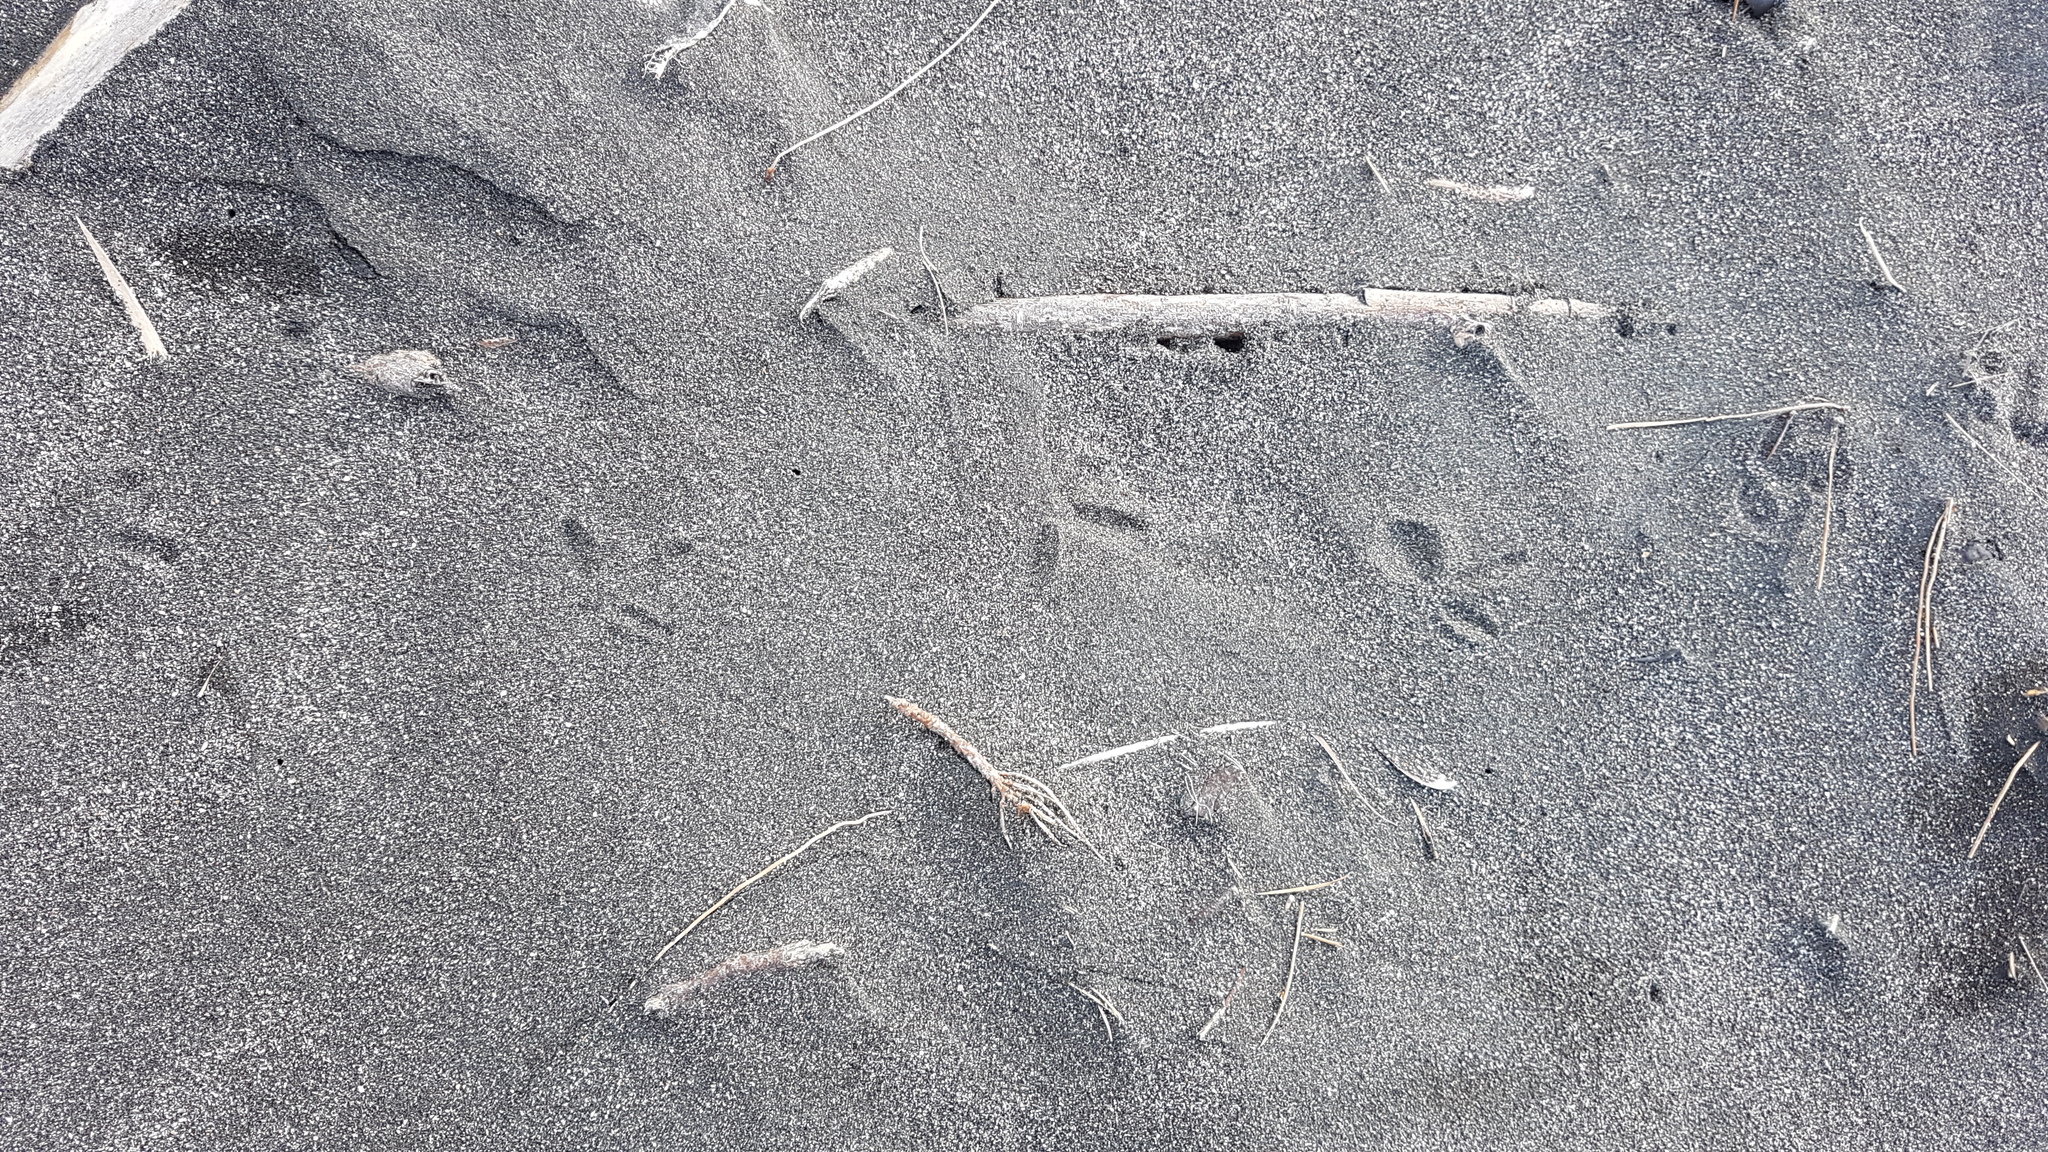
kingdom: Animalia
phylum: Chordata
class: Aves
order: Charadriiformes
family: Charadriidae
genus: Anarhynchus
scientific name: Anarhynchus
